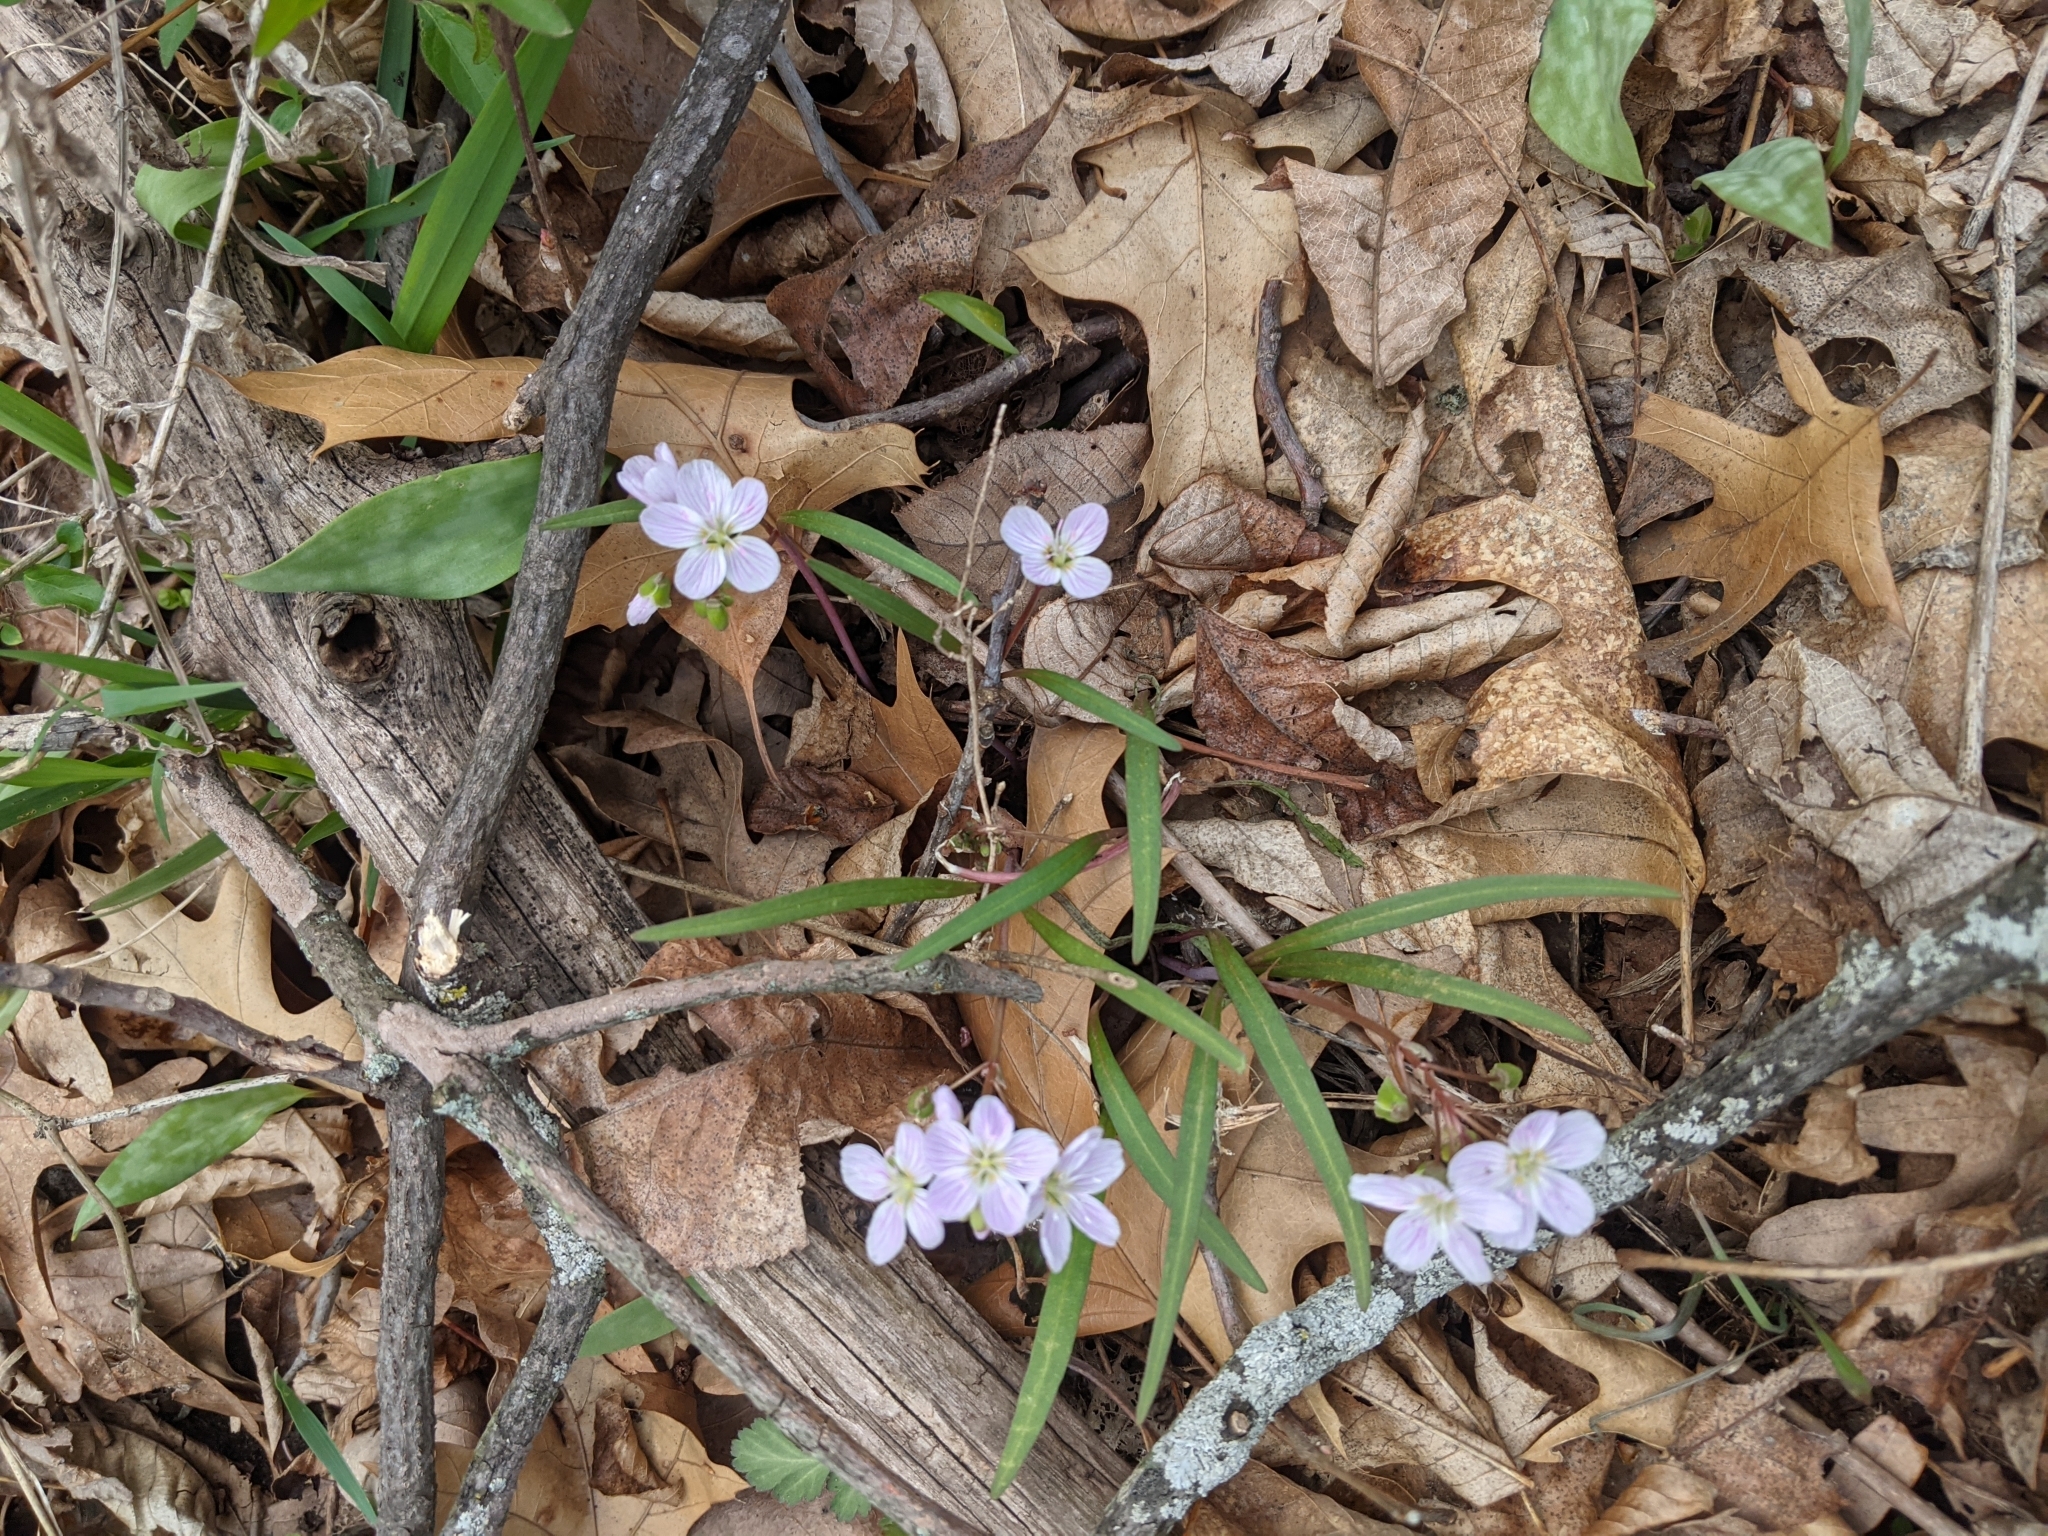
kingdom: Plantae
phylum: Tracheophyta
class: Magnoliopsida
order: Caryophyllales
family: Montiaceae
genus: Claytonia
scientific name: Claytonia virginica
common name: Virginia springbeauty
